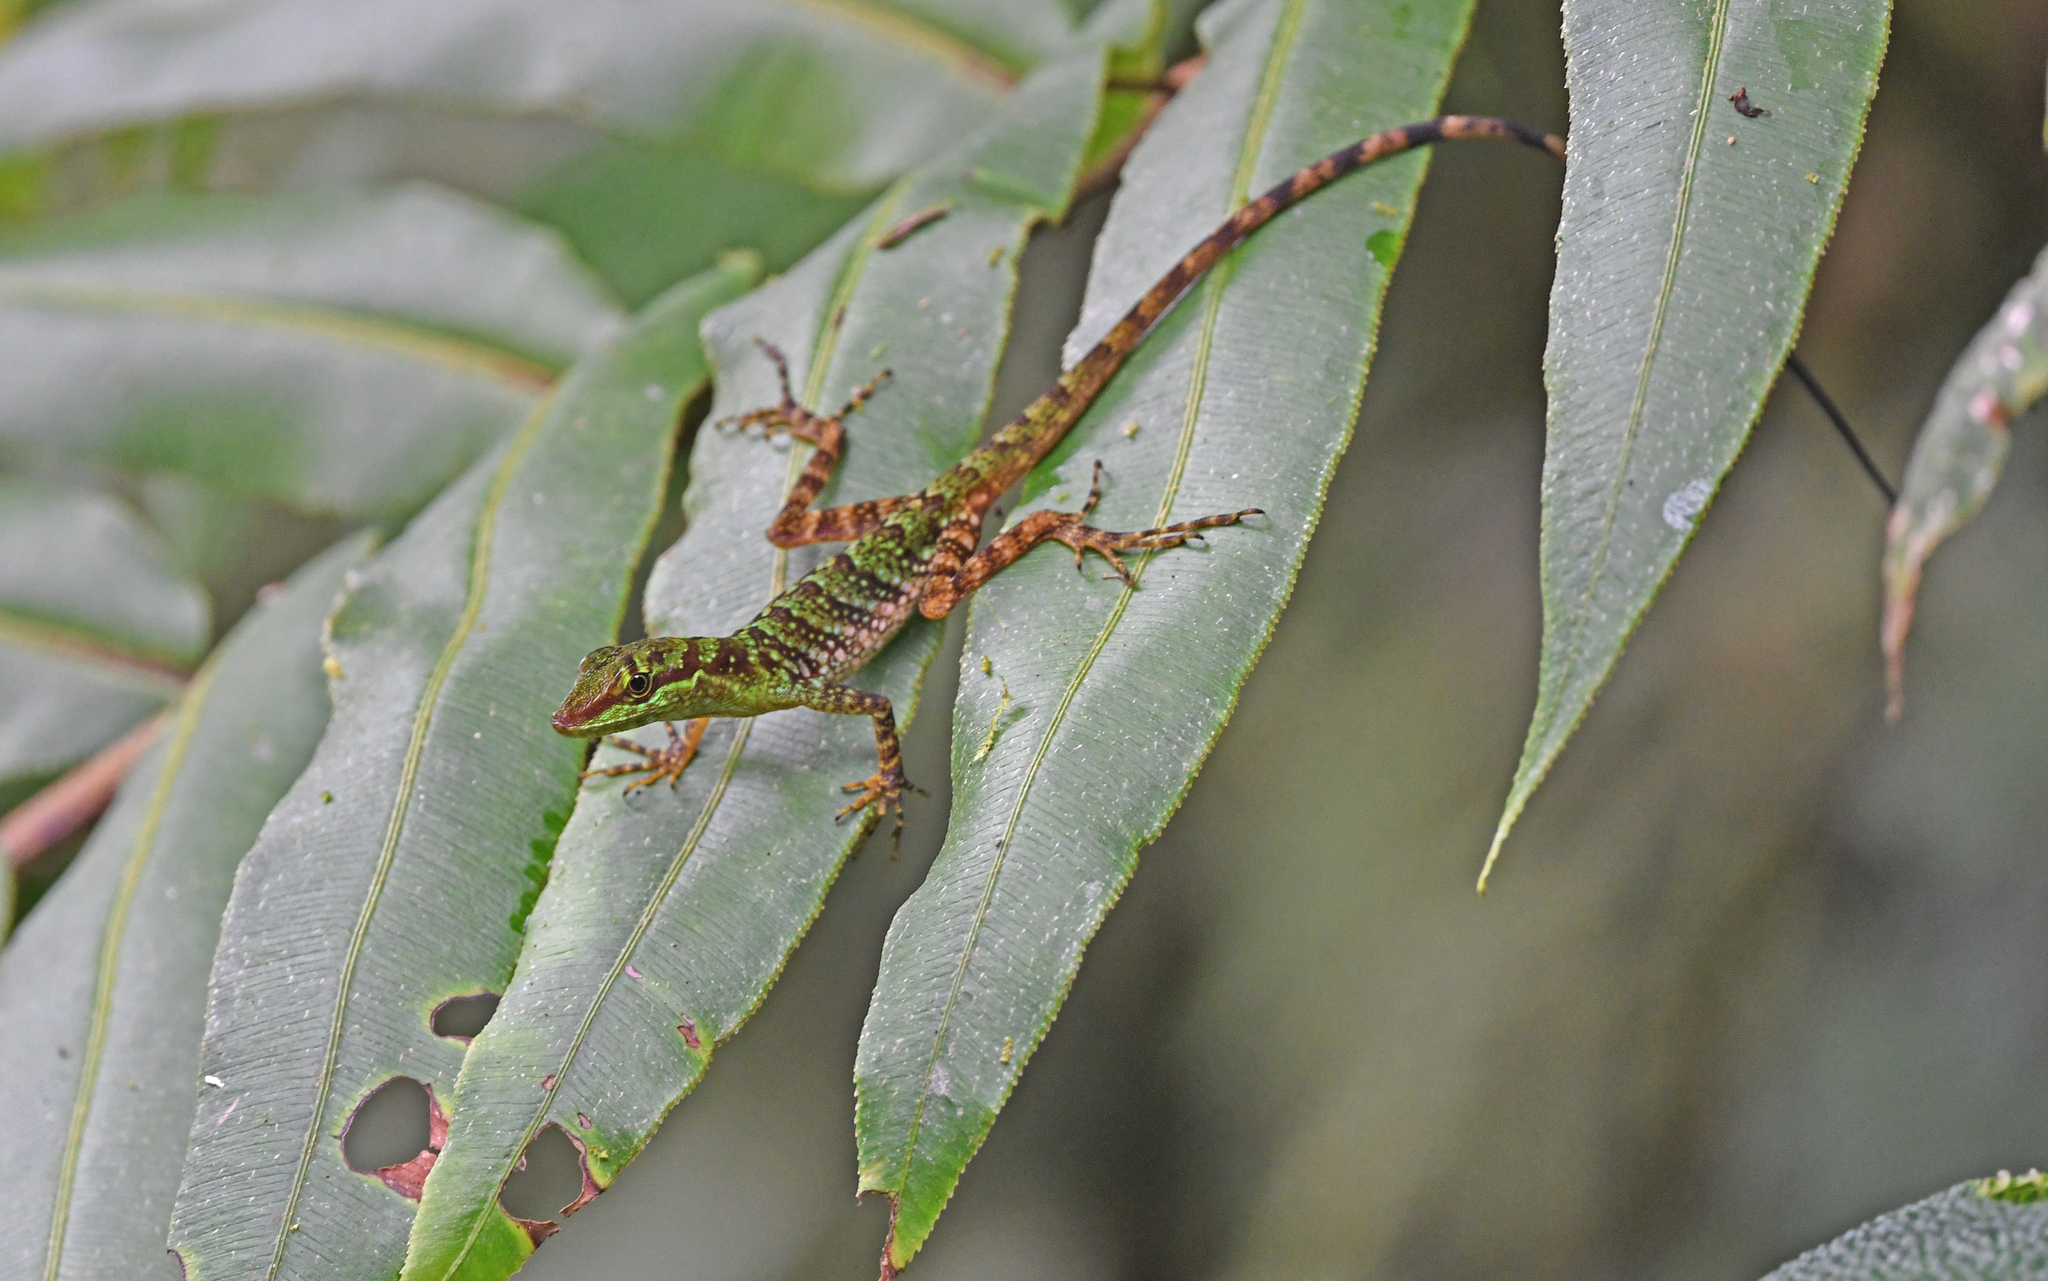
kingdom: Animalia
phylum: Chordata
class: Squamata
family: Dactyloidae
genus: Anolis
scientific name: Anolis ventrimaculatus
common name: Speckled anole
